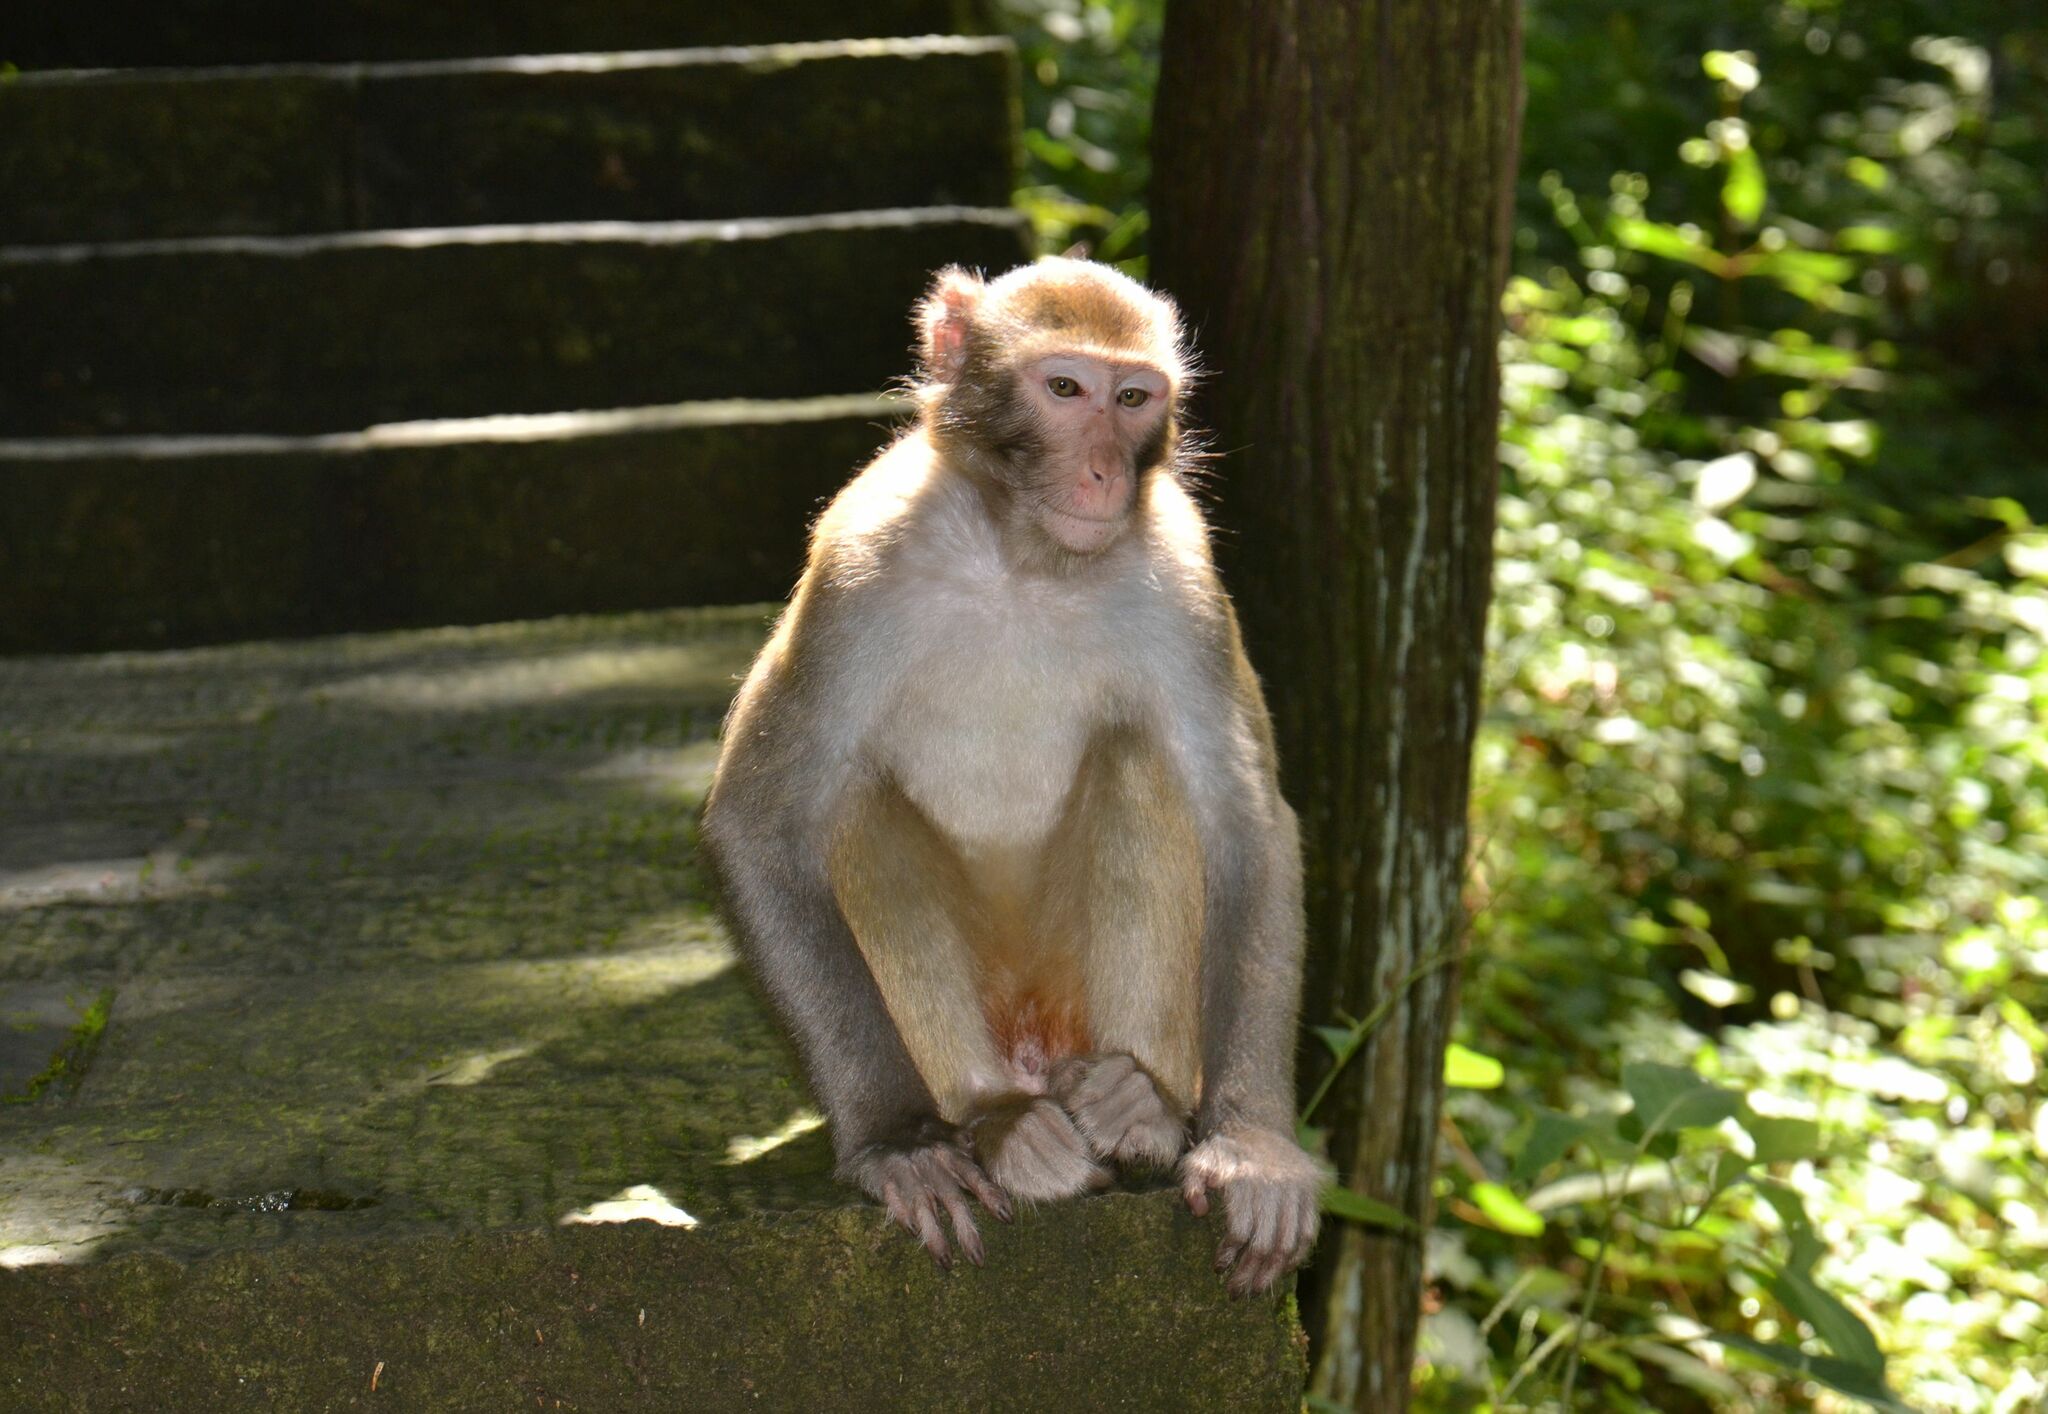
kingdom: Animalia
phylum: Chordata
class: Mammalia
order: Primates
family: Cercopithecidae
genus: Macaca
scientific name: Macaca mulatta
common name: Rhesus monkey
